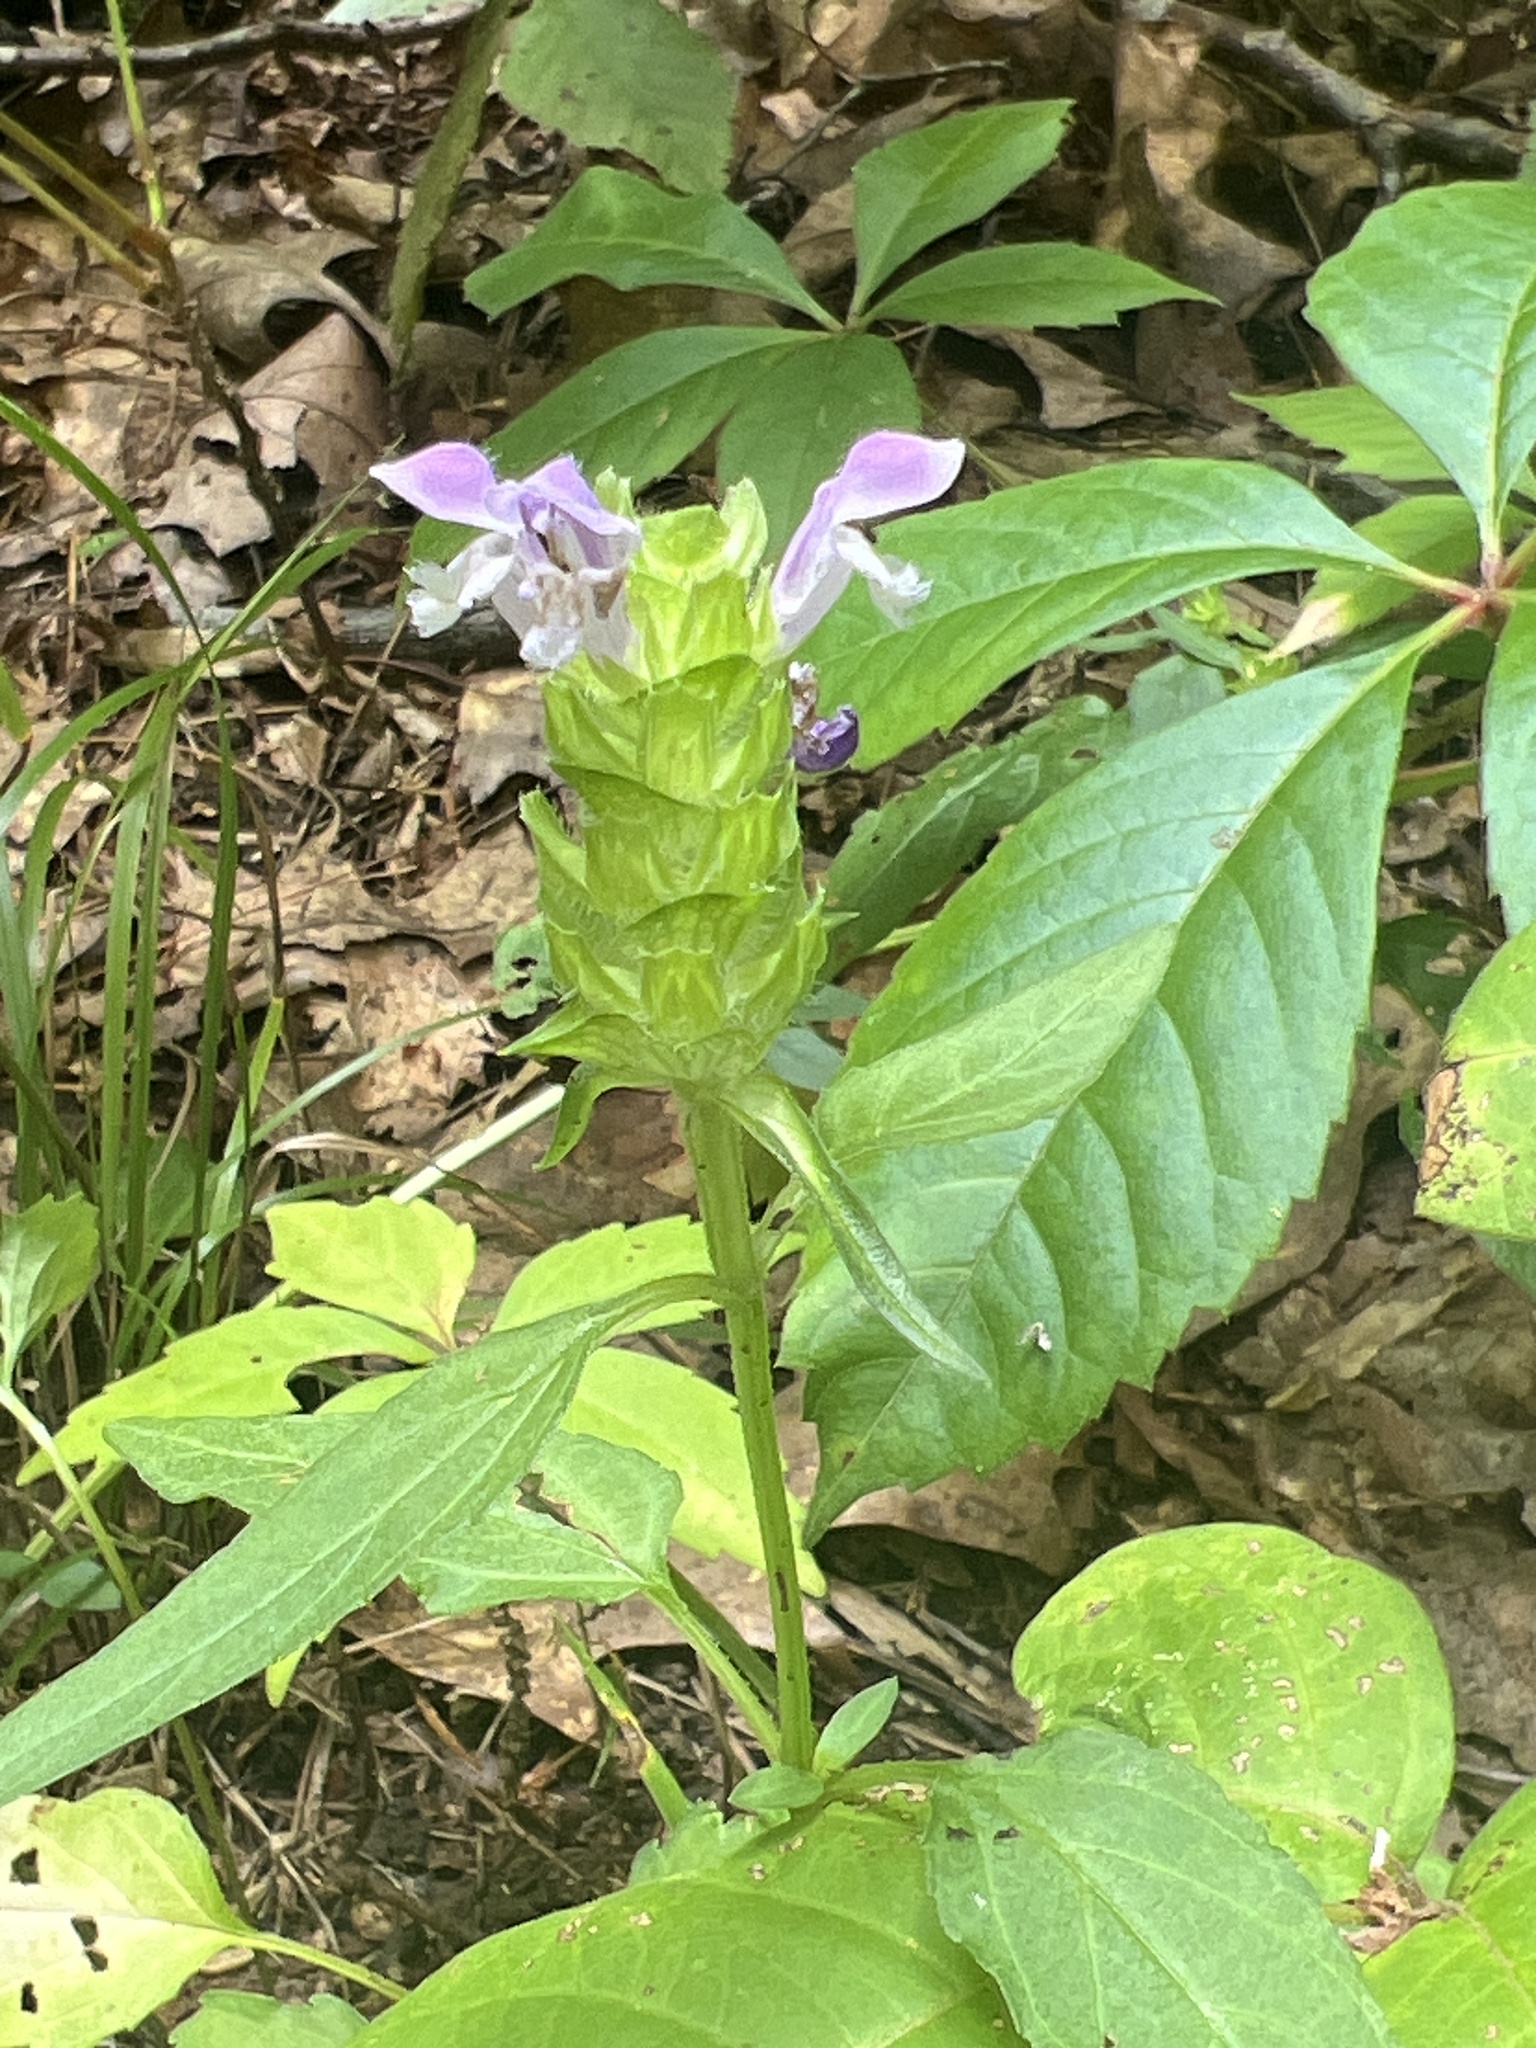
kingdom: Plantae
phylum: Tracheophyta
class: Magnoliopsida
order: Lamiales
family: Lamiaceae
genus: Prunella
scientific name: Prunella vulgaris
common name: Heal-all
